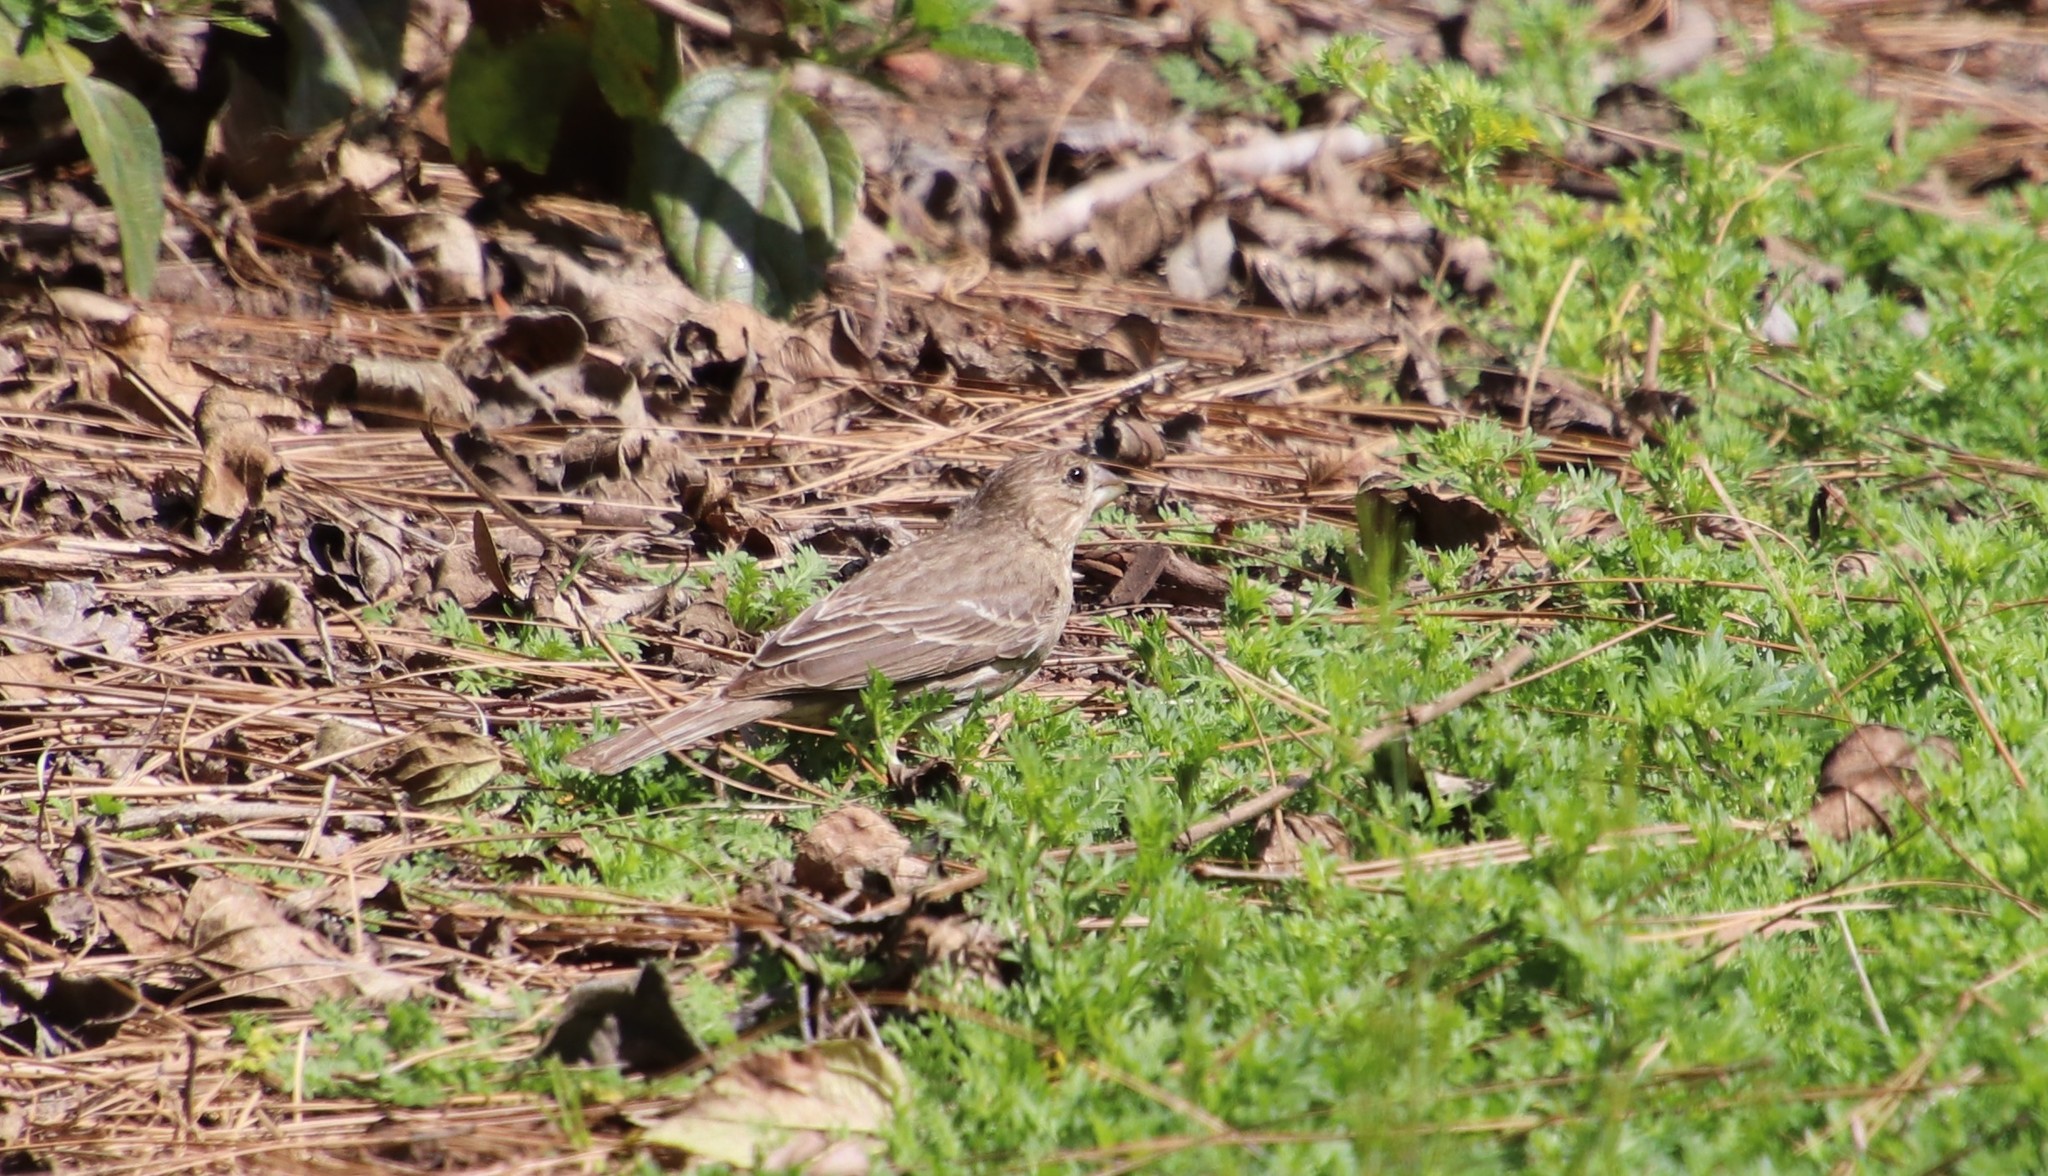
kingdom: Animalia
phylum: Chordata
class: Aves
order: Passeriformes
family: Fringillidae
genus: Haemorhous
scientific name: Haemorhous mexicanus
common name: House finch
